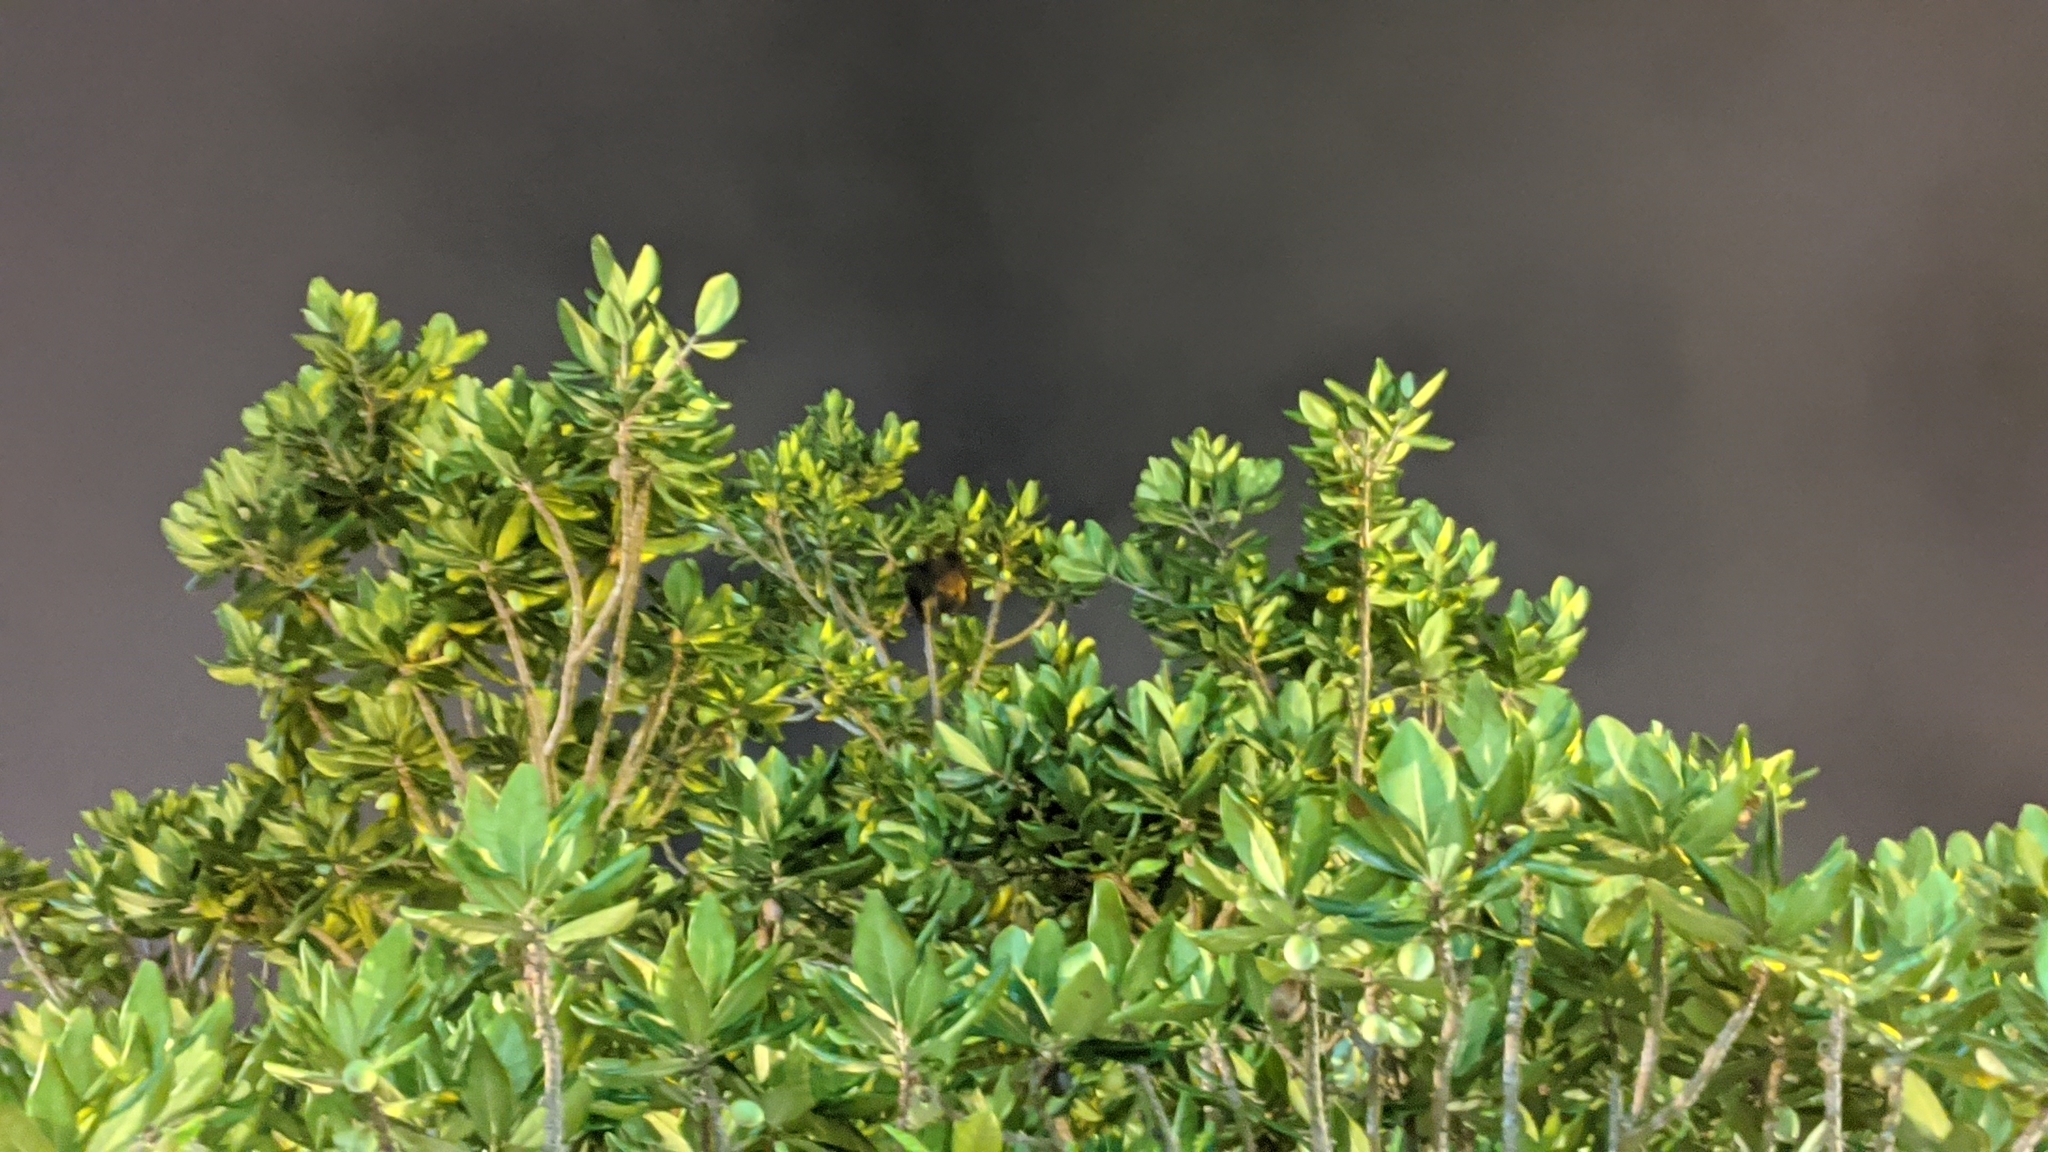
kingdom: Animalia
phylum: Chordata
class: Mammalia
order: Chiroptera
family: Pteropodidae
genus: Pteropus
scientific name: Pteropus dasymallus
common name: Ryukyu flying fox
